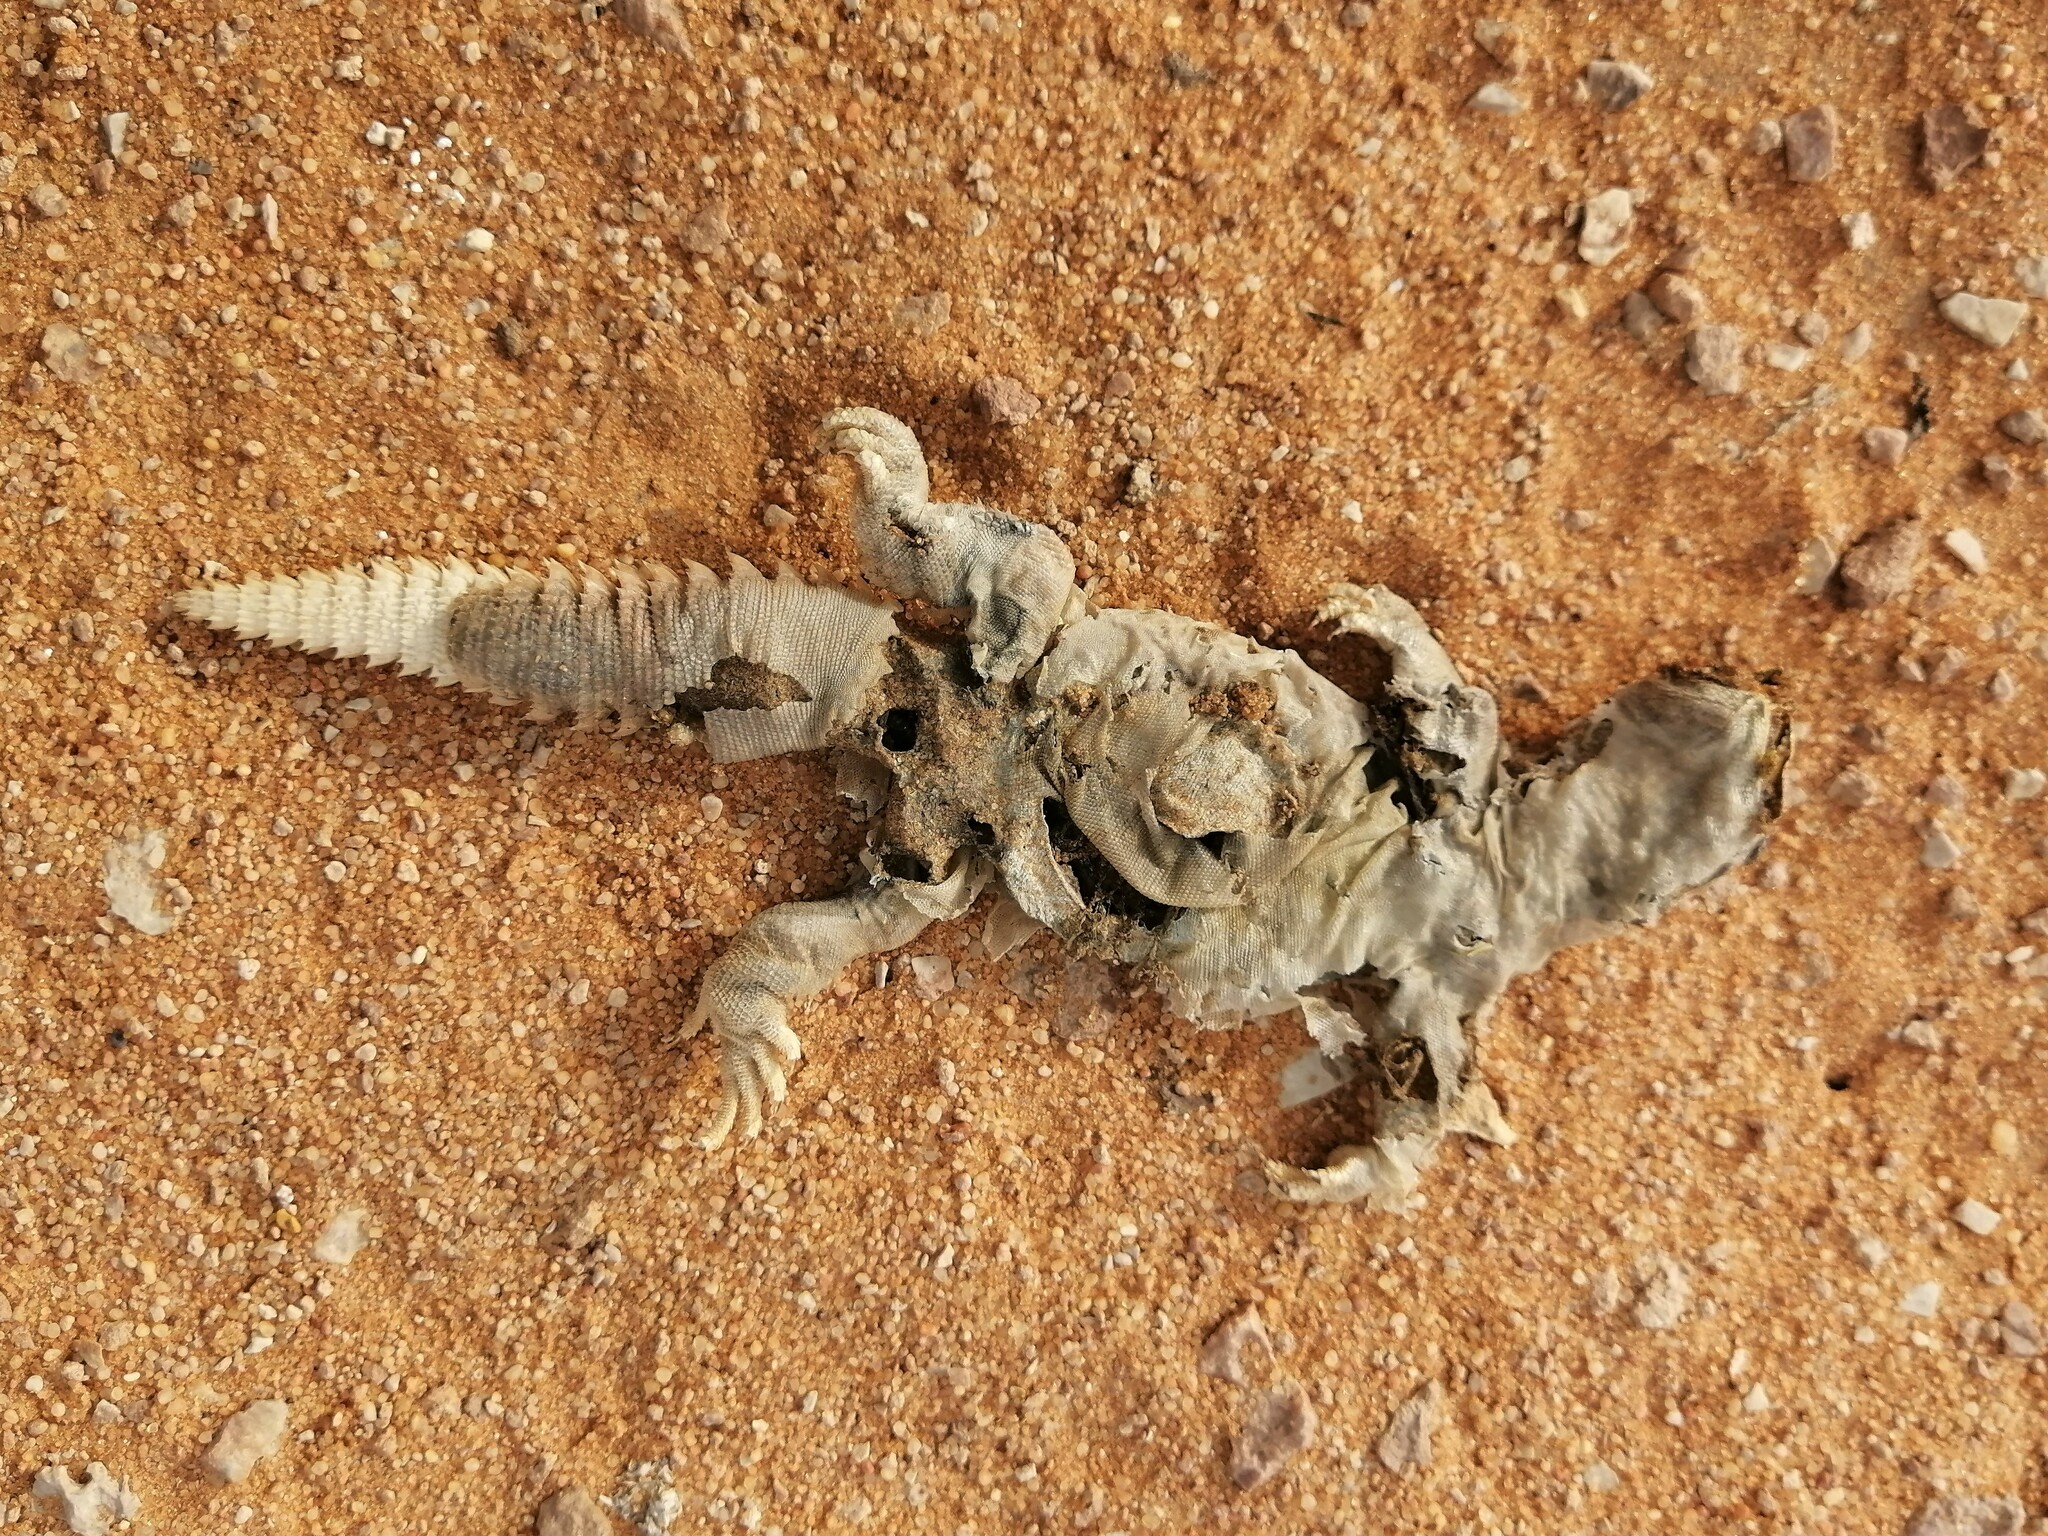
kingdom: Animalia
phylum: Chordata
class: Squamata
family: Agamidae
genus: Uromastyx
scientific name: Uromastyx aegyptia
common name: Egyptian mastigure
